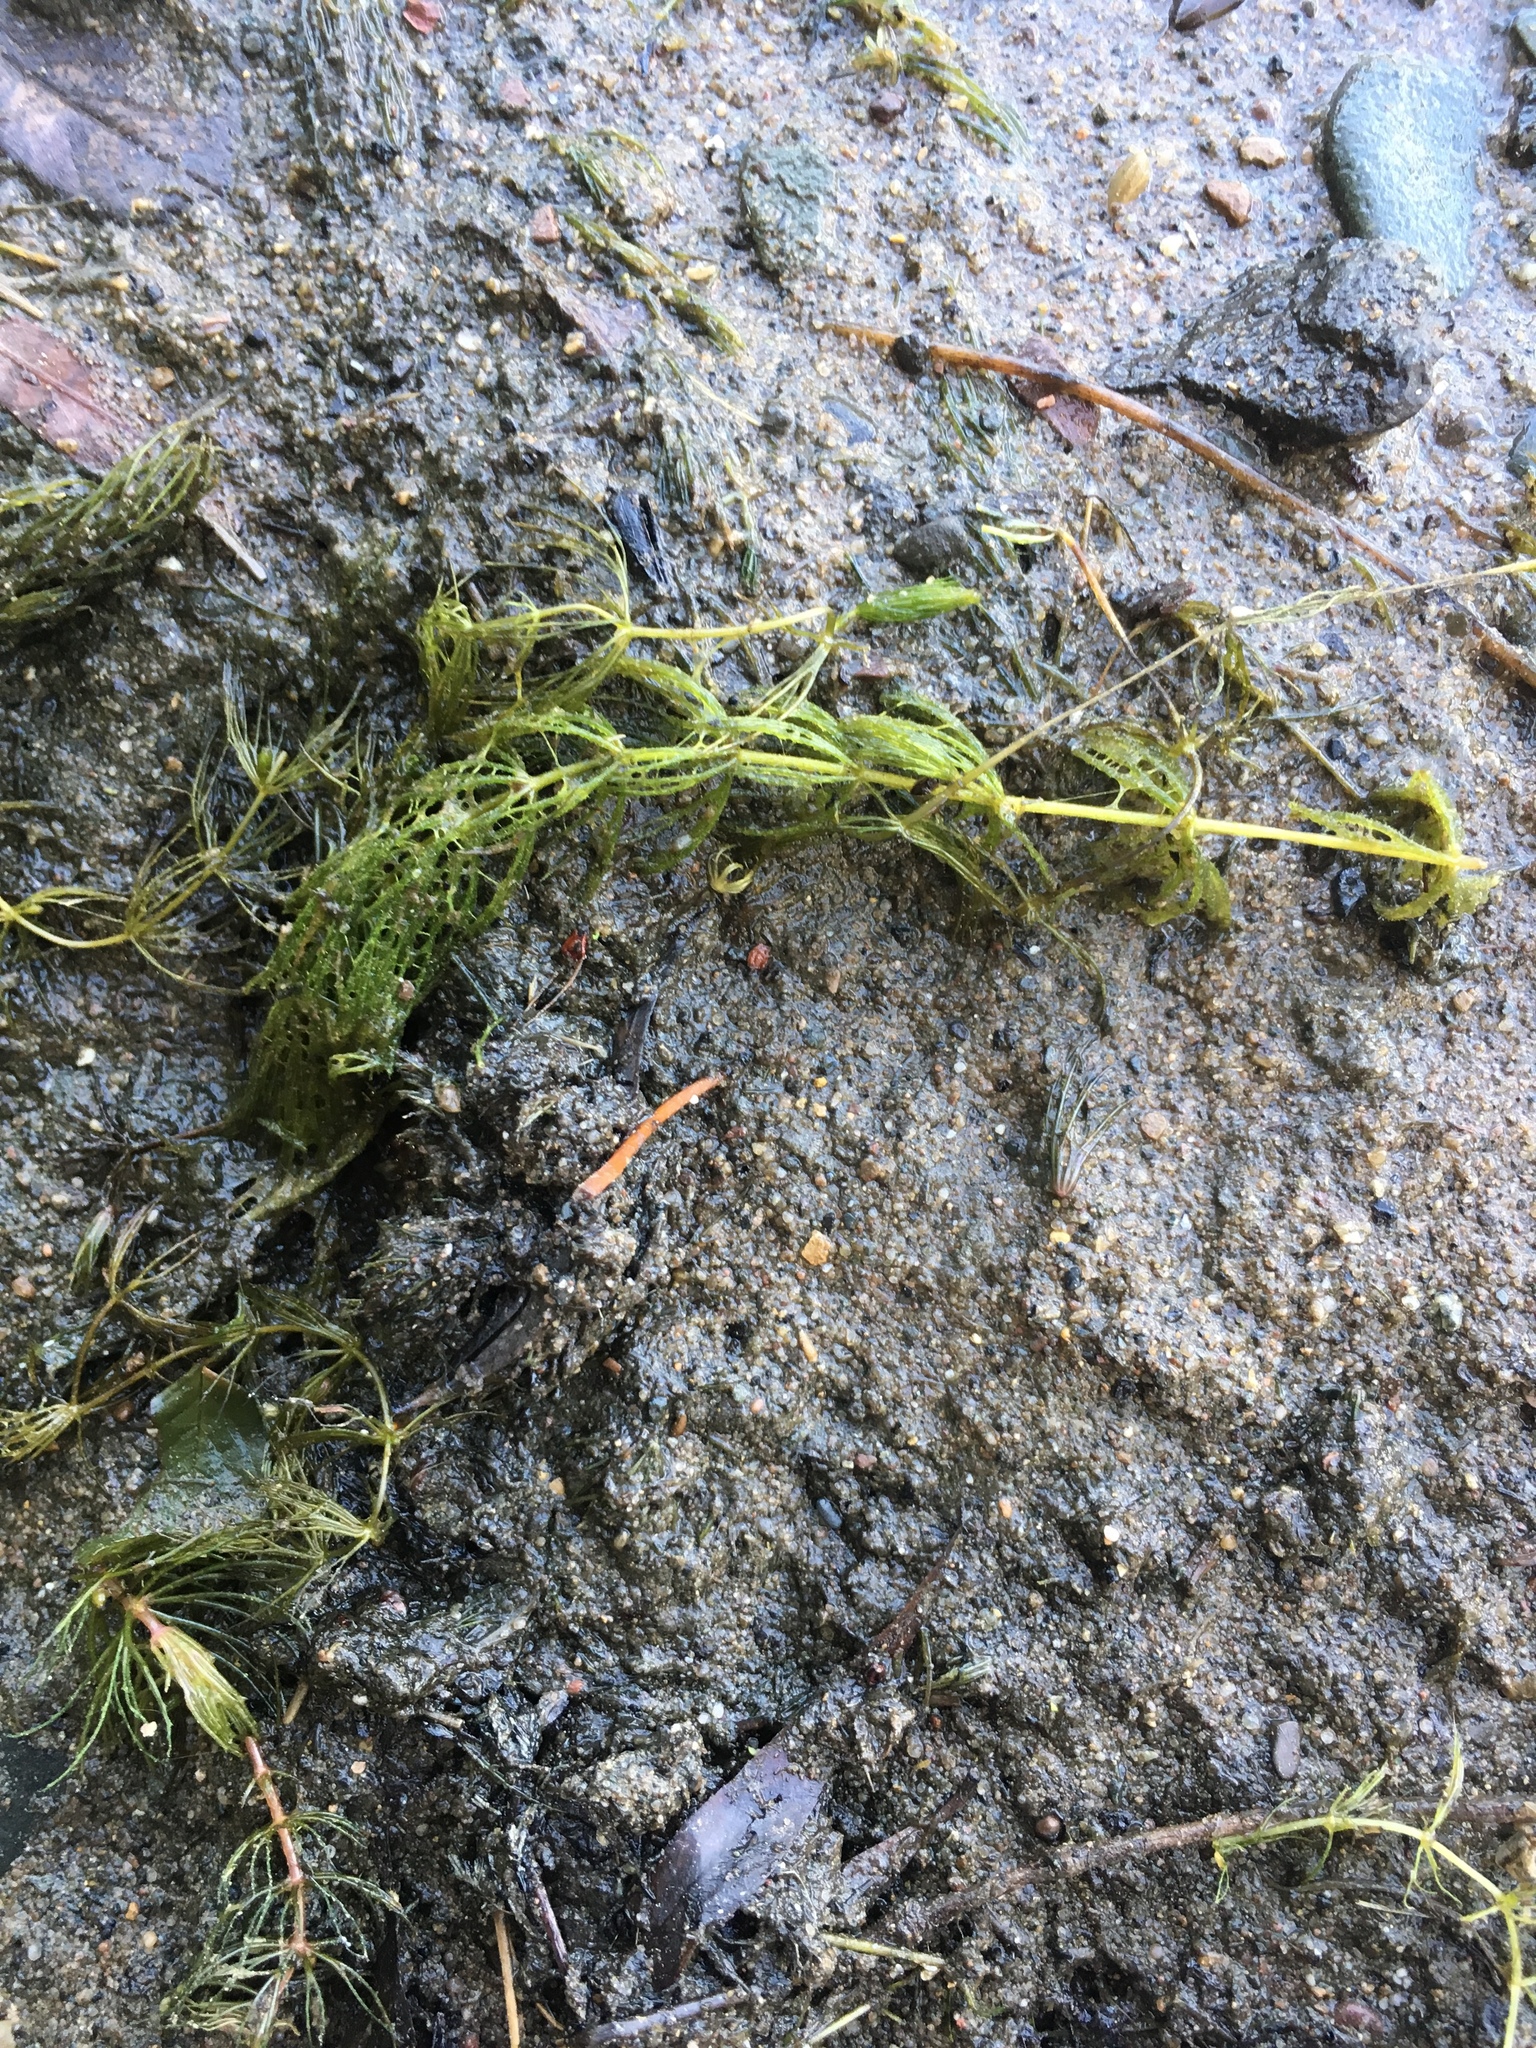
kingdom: Plantae
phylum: Tracheophyta
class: Magnoliopsida
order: Ceratophyllales
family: Ceratophyllaceae
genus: Ceratophyllum
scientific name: Ceratophyllum demersum
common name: Rigid hornwort
